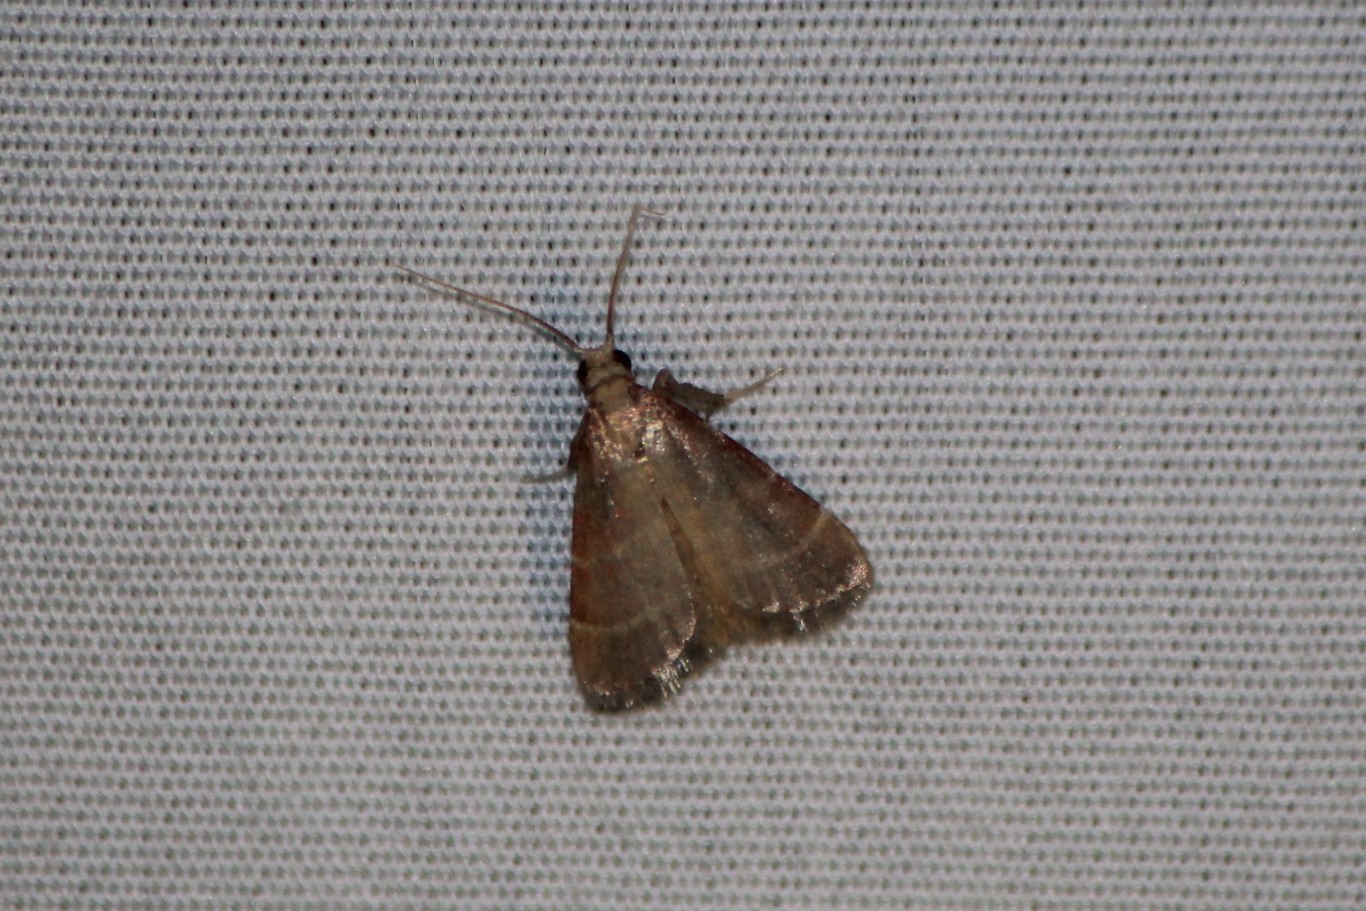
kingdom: Animalia
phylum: Arthropoda
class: Insecta
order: Lepidoptera
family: Pyralidae
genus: Arta
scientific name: Arta statalis
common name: Posturing arta moth
